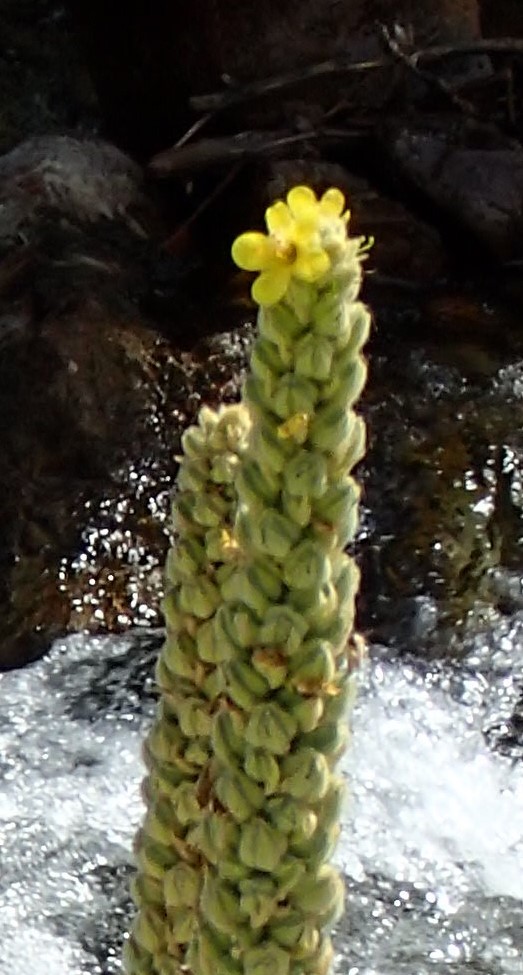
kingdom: Plantae
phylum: Tracheophyta
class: Magnoliopsida
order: Lamiales
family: Scrophulariaceae
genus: Verbascum
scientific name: Verbascum thapsus
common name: Common mullein
